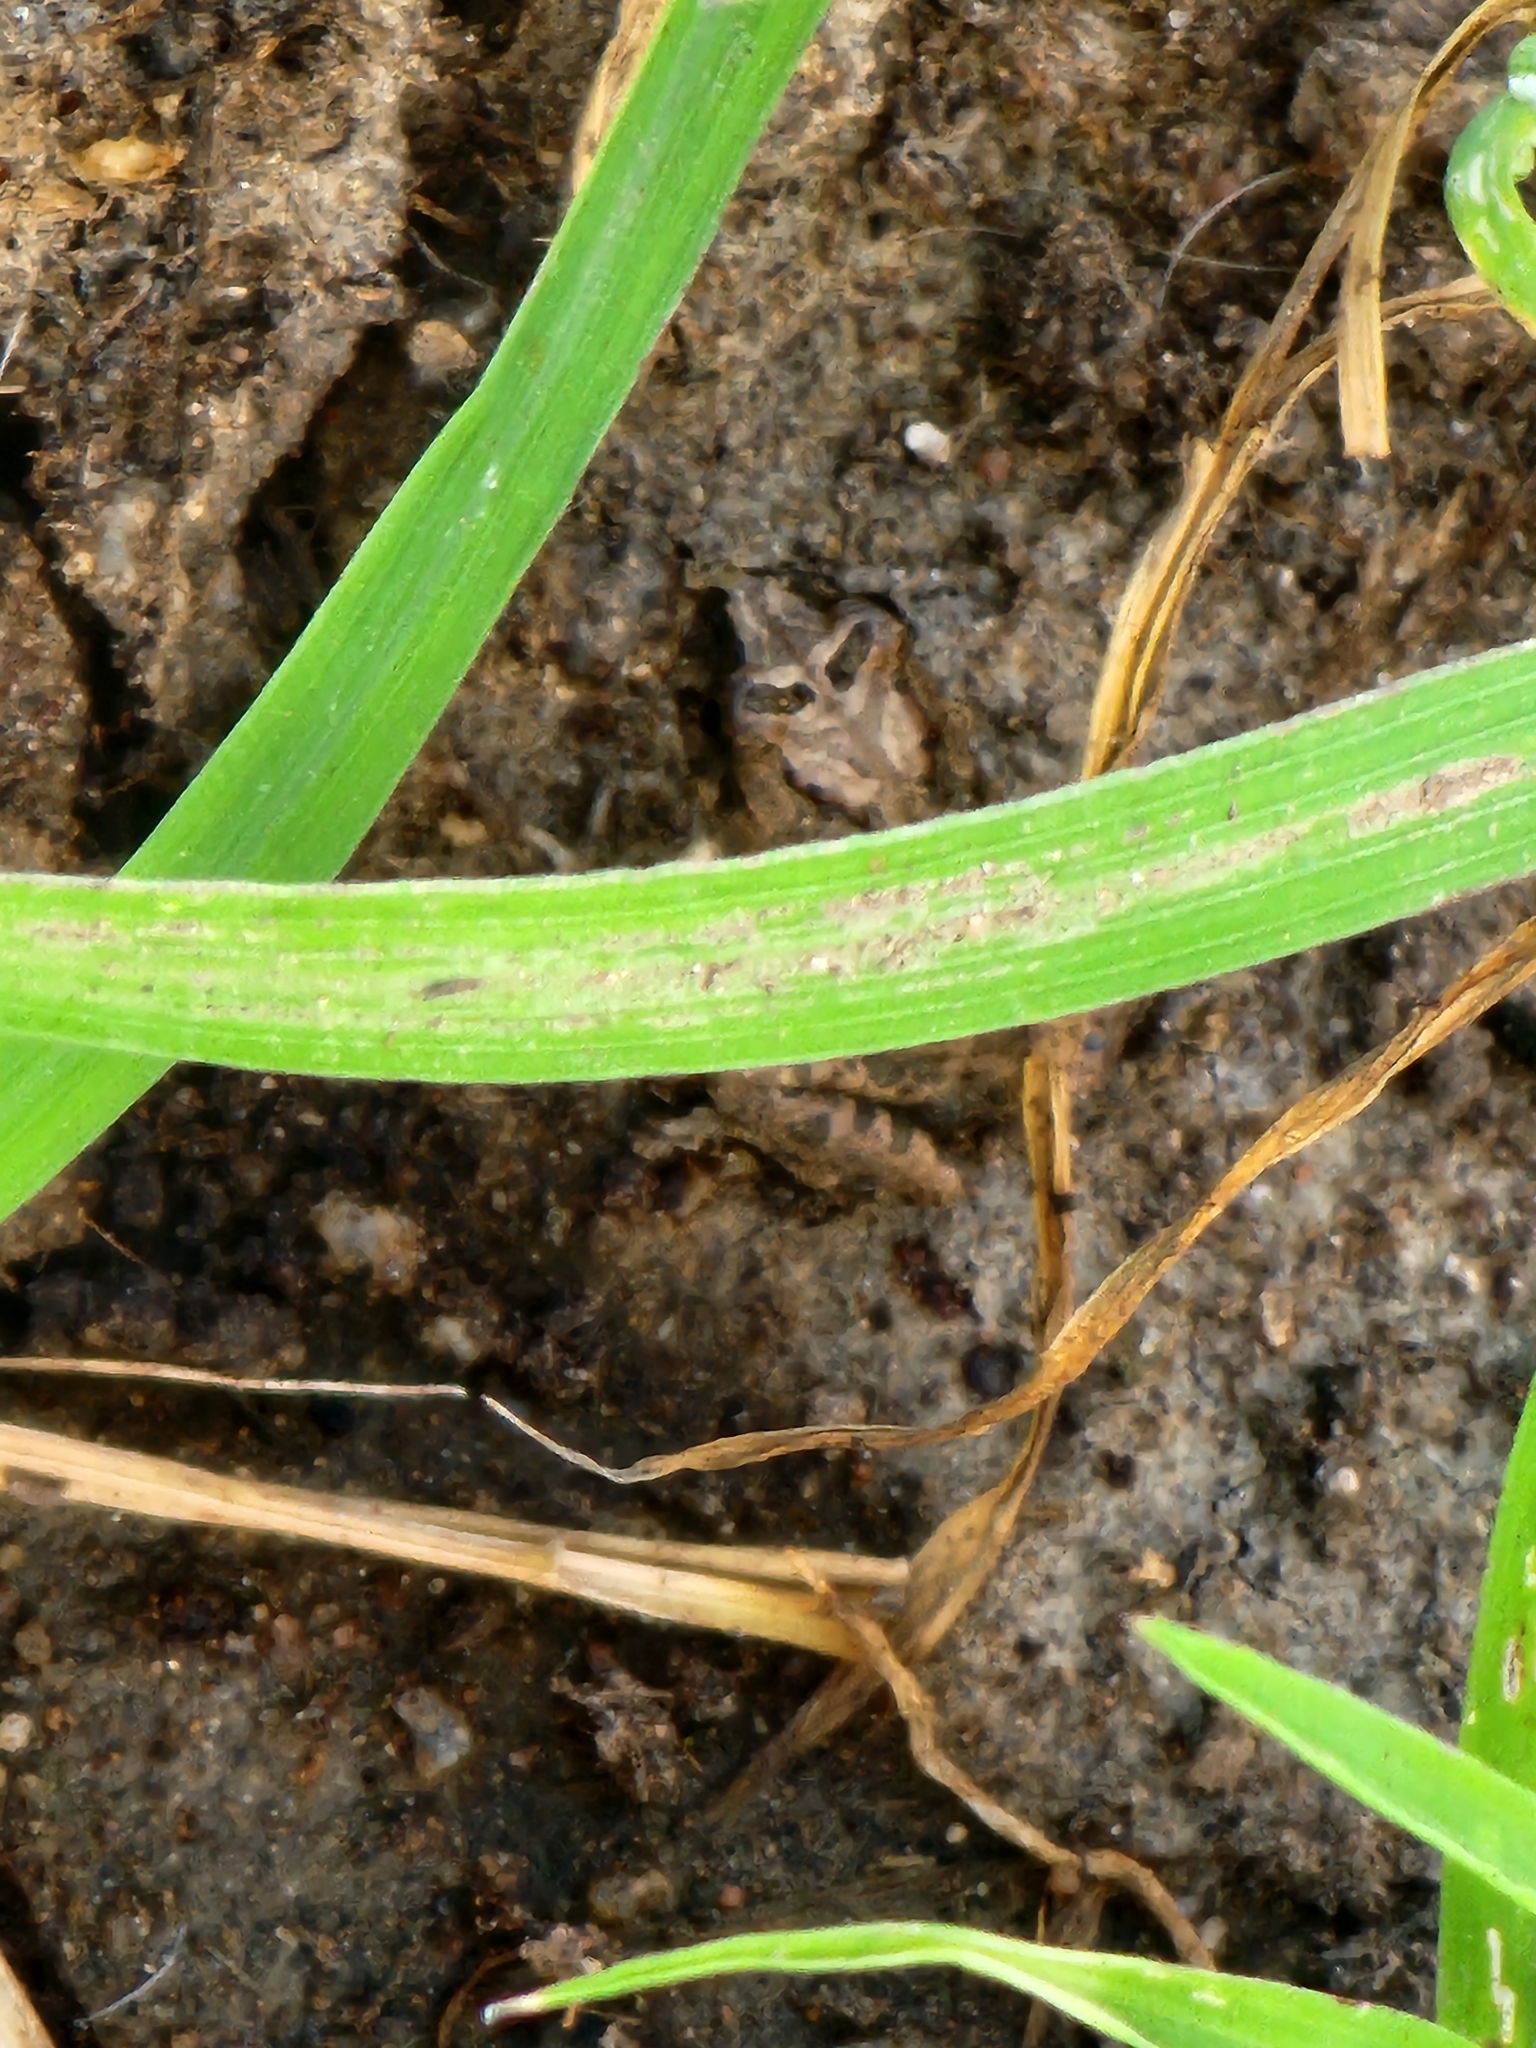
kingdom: Animalia
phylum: Chordata
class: Amphibia
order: Anura
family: Limnodynastidae
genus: Platyplectrum
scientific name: Platyplectrum ornatum
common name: Ornate burrowing frog
